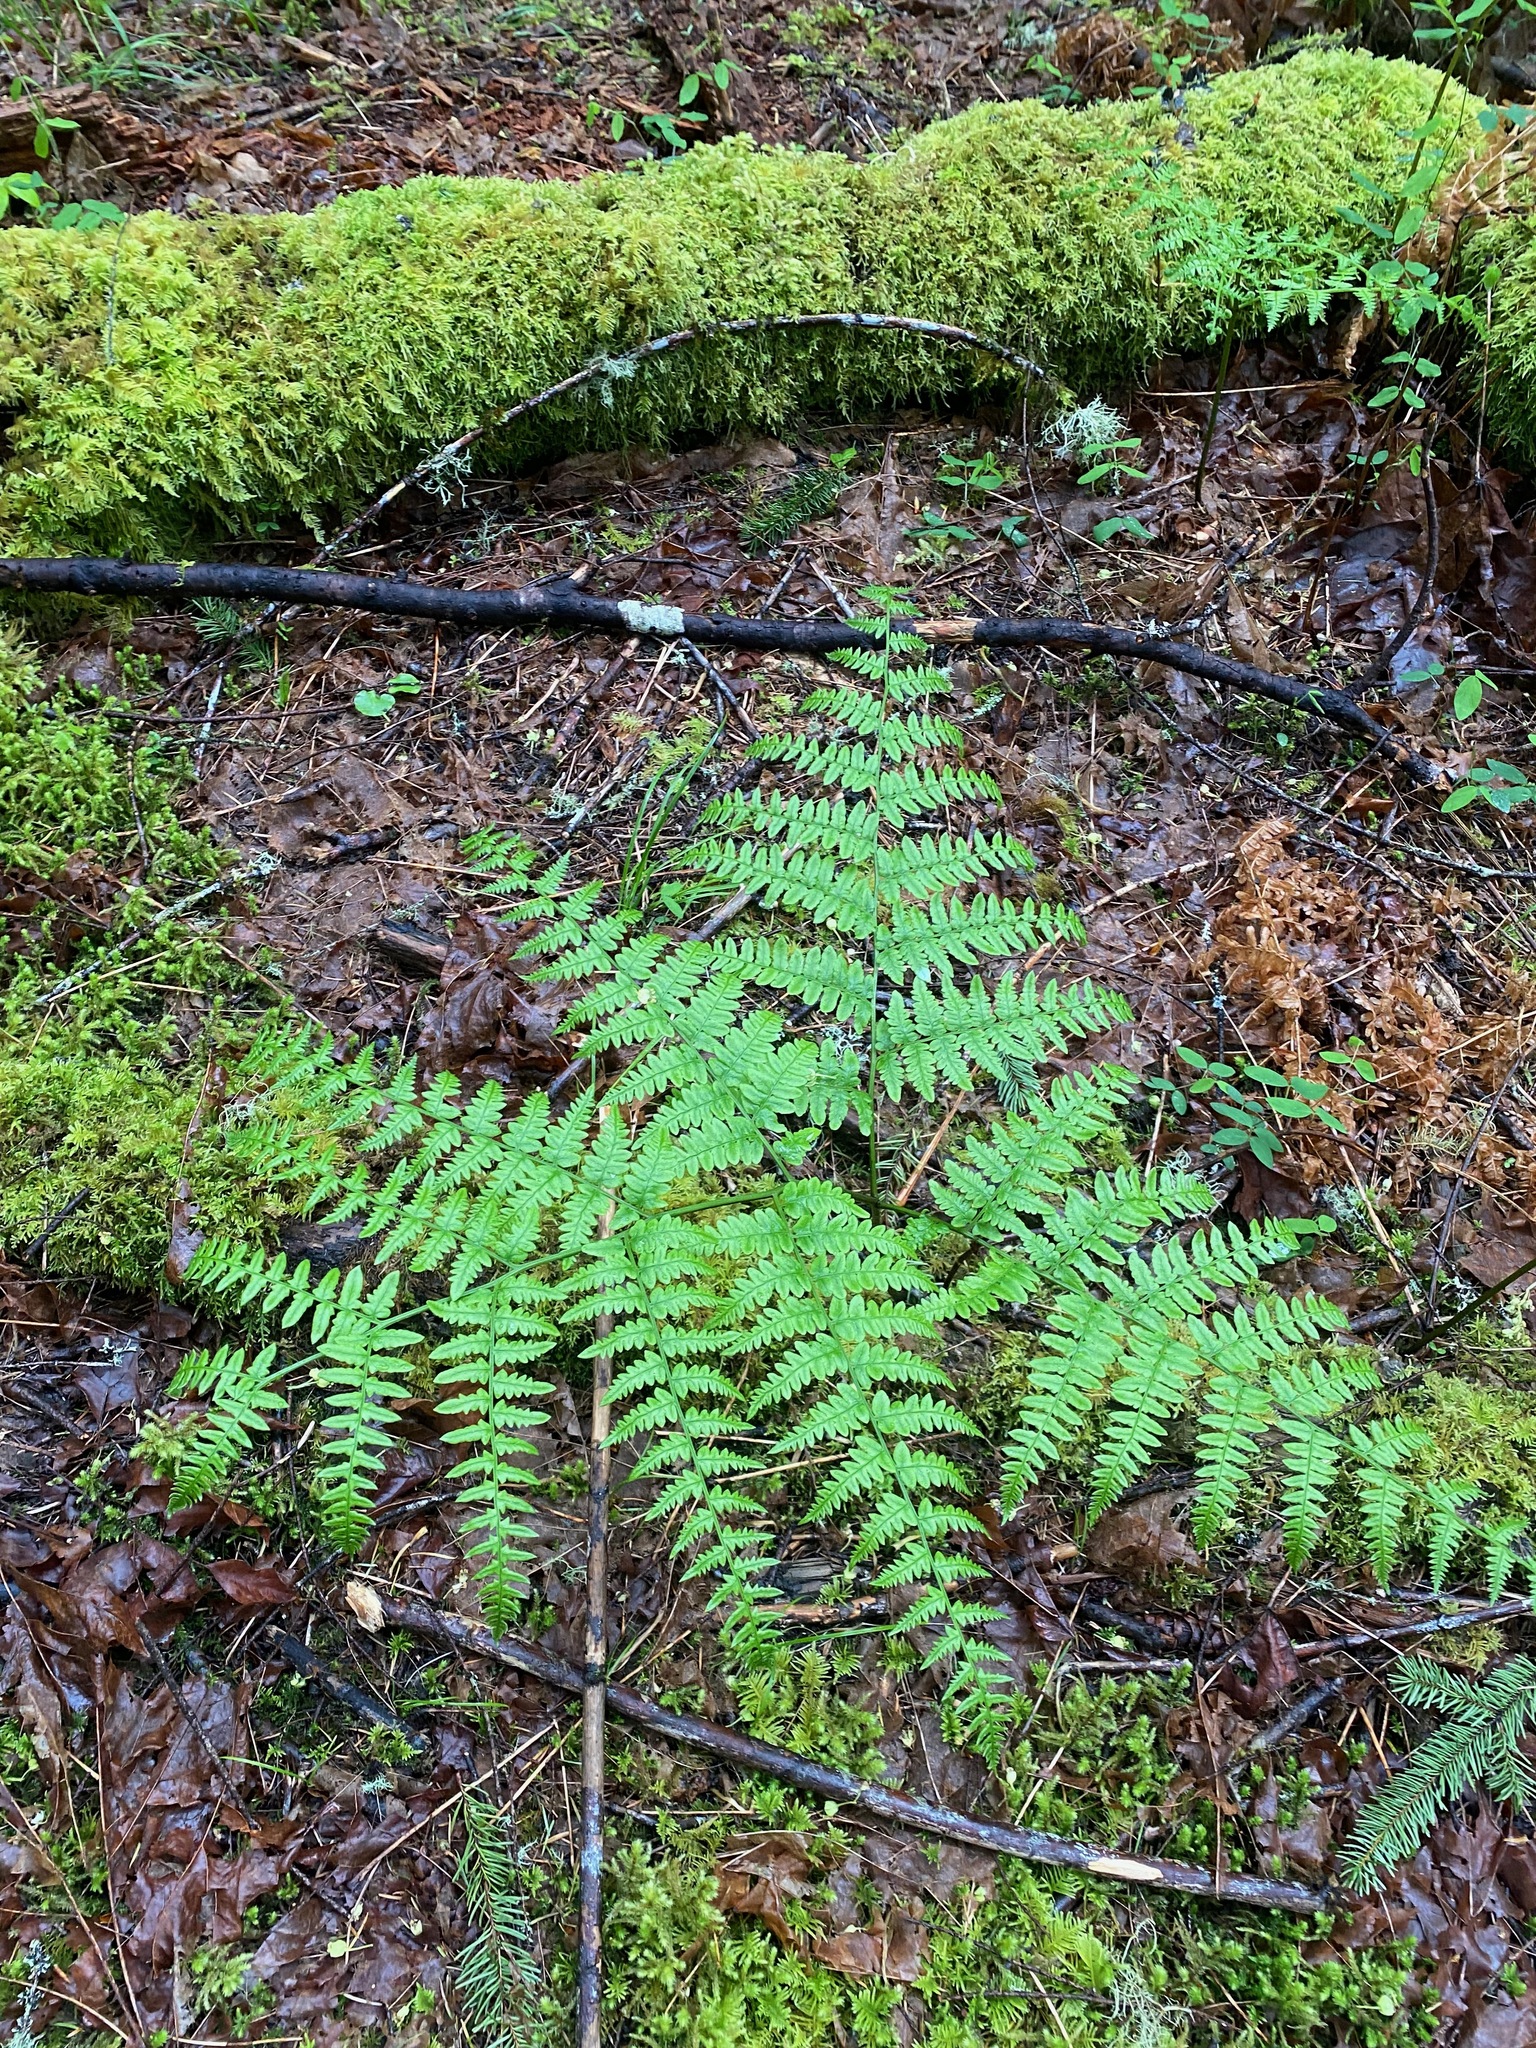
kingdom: Plantae
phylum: Tracheophyta
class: Polypodiopsida
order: Polypodiales
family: Dennstaedtiaceae
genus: Pteridium
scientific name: Pteridium aquilinum
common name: Bracken
